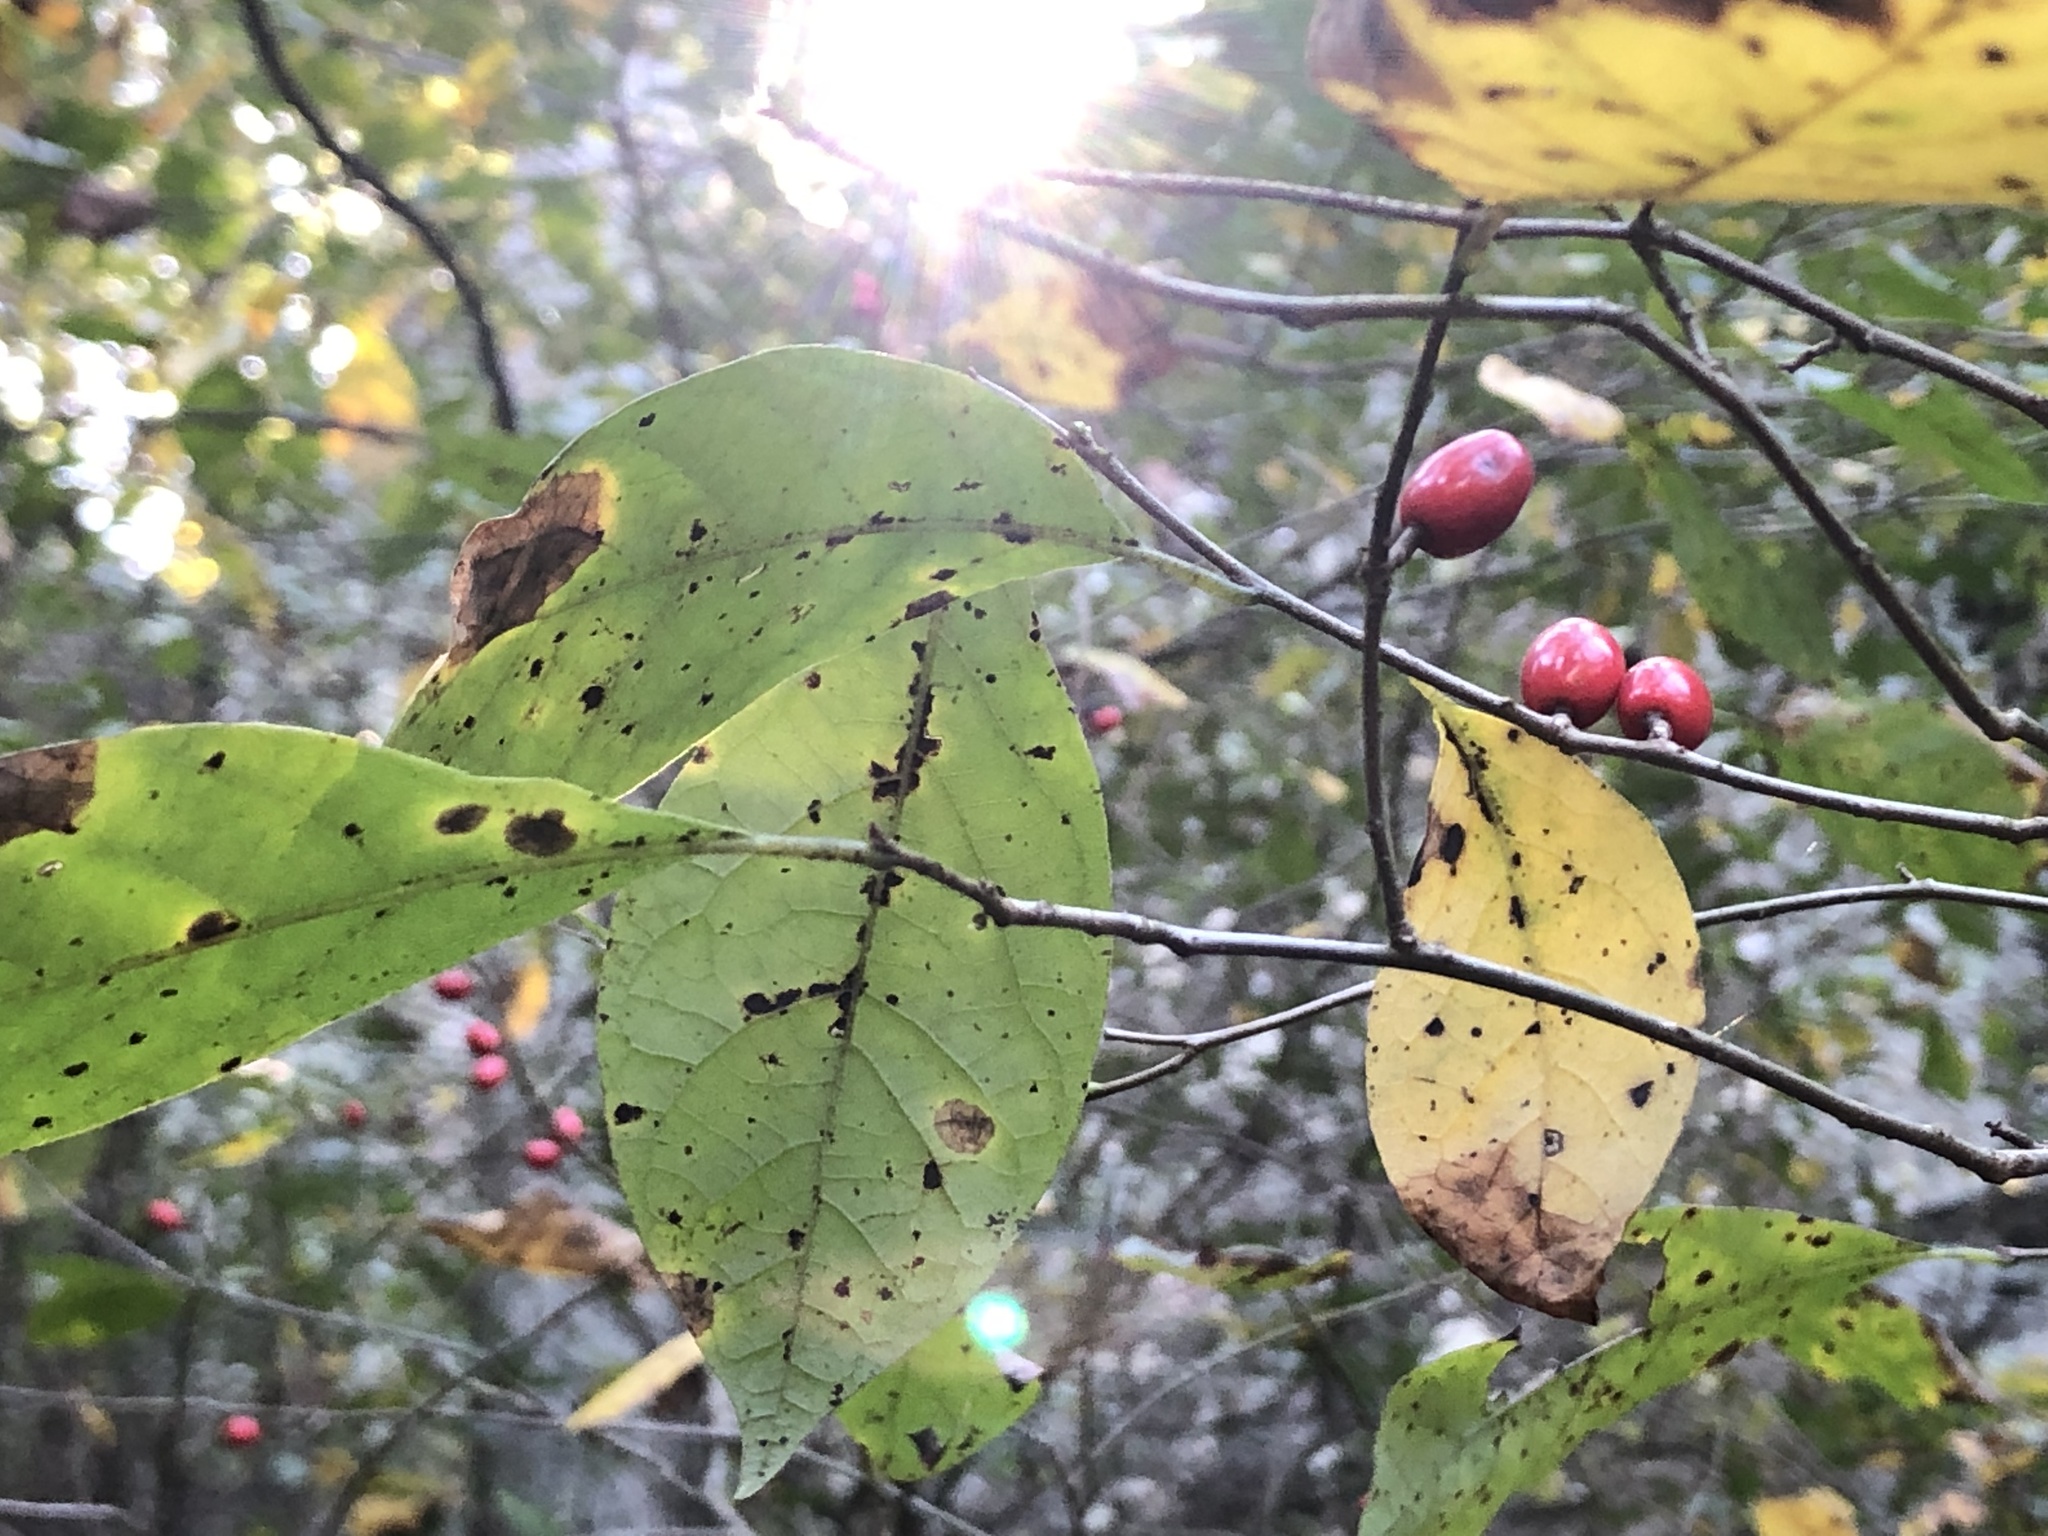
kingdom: Plantae
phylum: Tracheophyta
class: Magnoliopsida
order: Laurales
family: Lauraceae
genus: Lindera
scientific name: Lindera benzoin
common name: Spicebush
